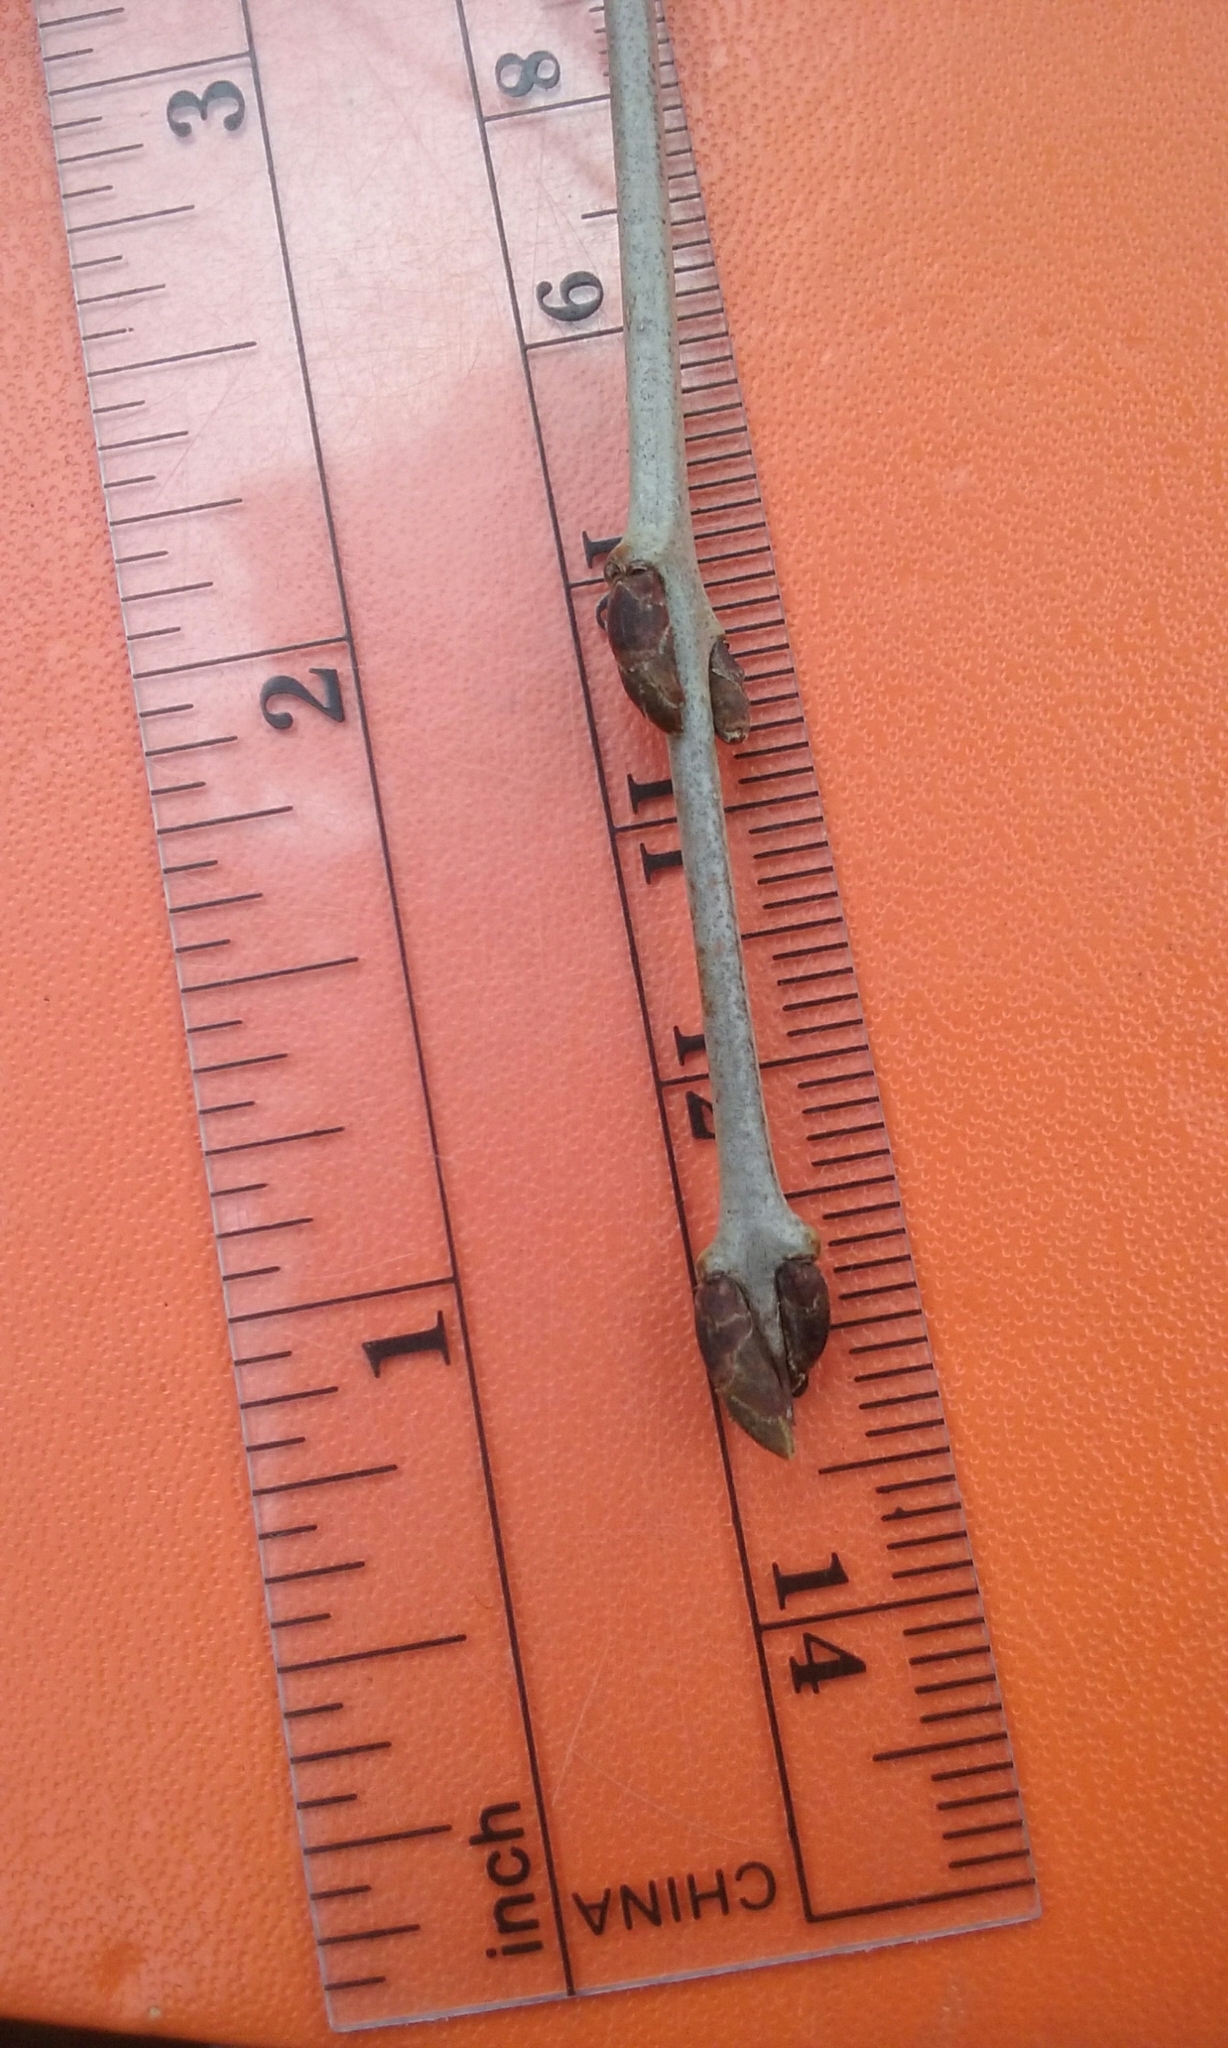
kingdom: Plantae
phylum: Tracheophyta
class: Magnoliopsida
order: Rosales
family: Rhamnaceae
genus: Rhamnus
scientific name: Rhamnus cathartica
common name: Common buckthorn
